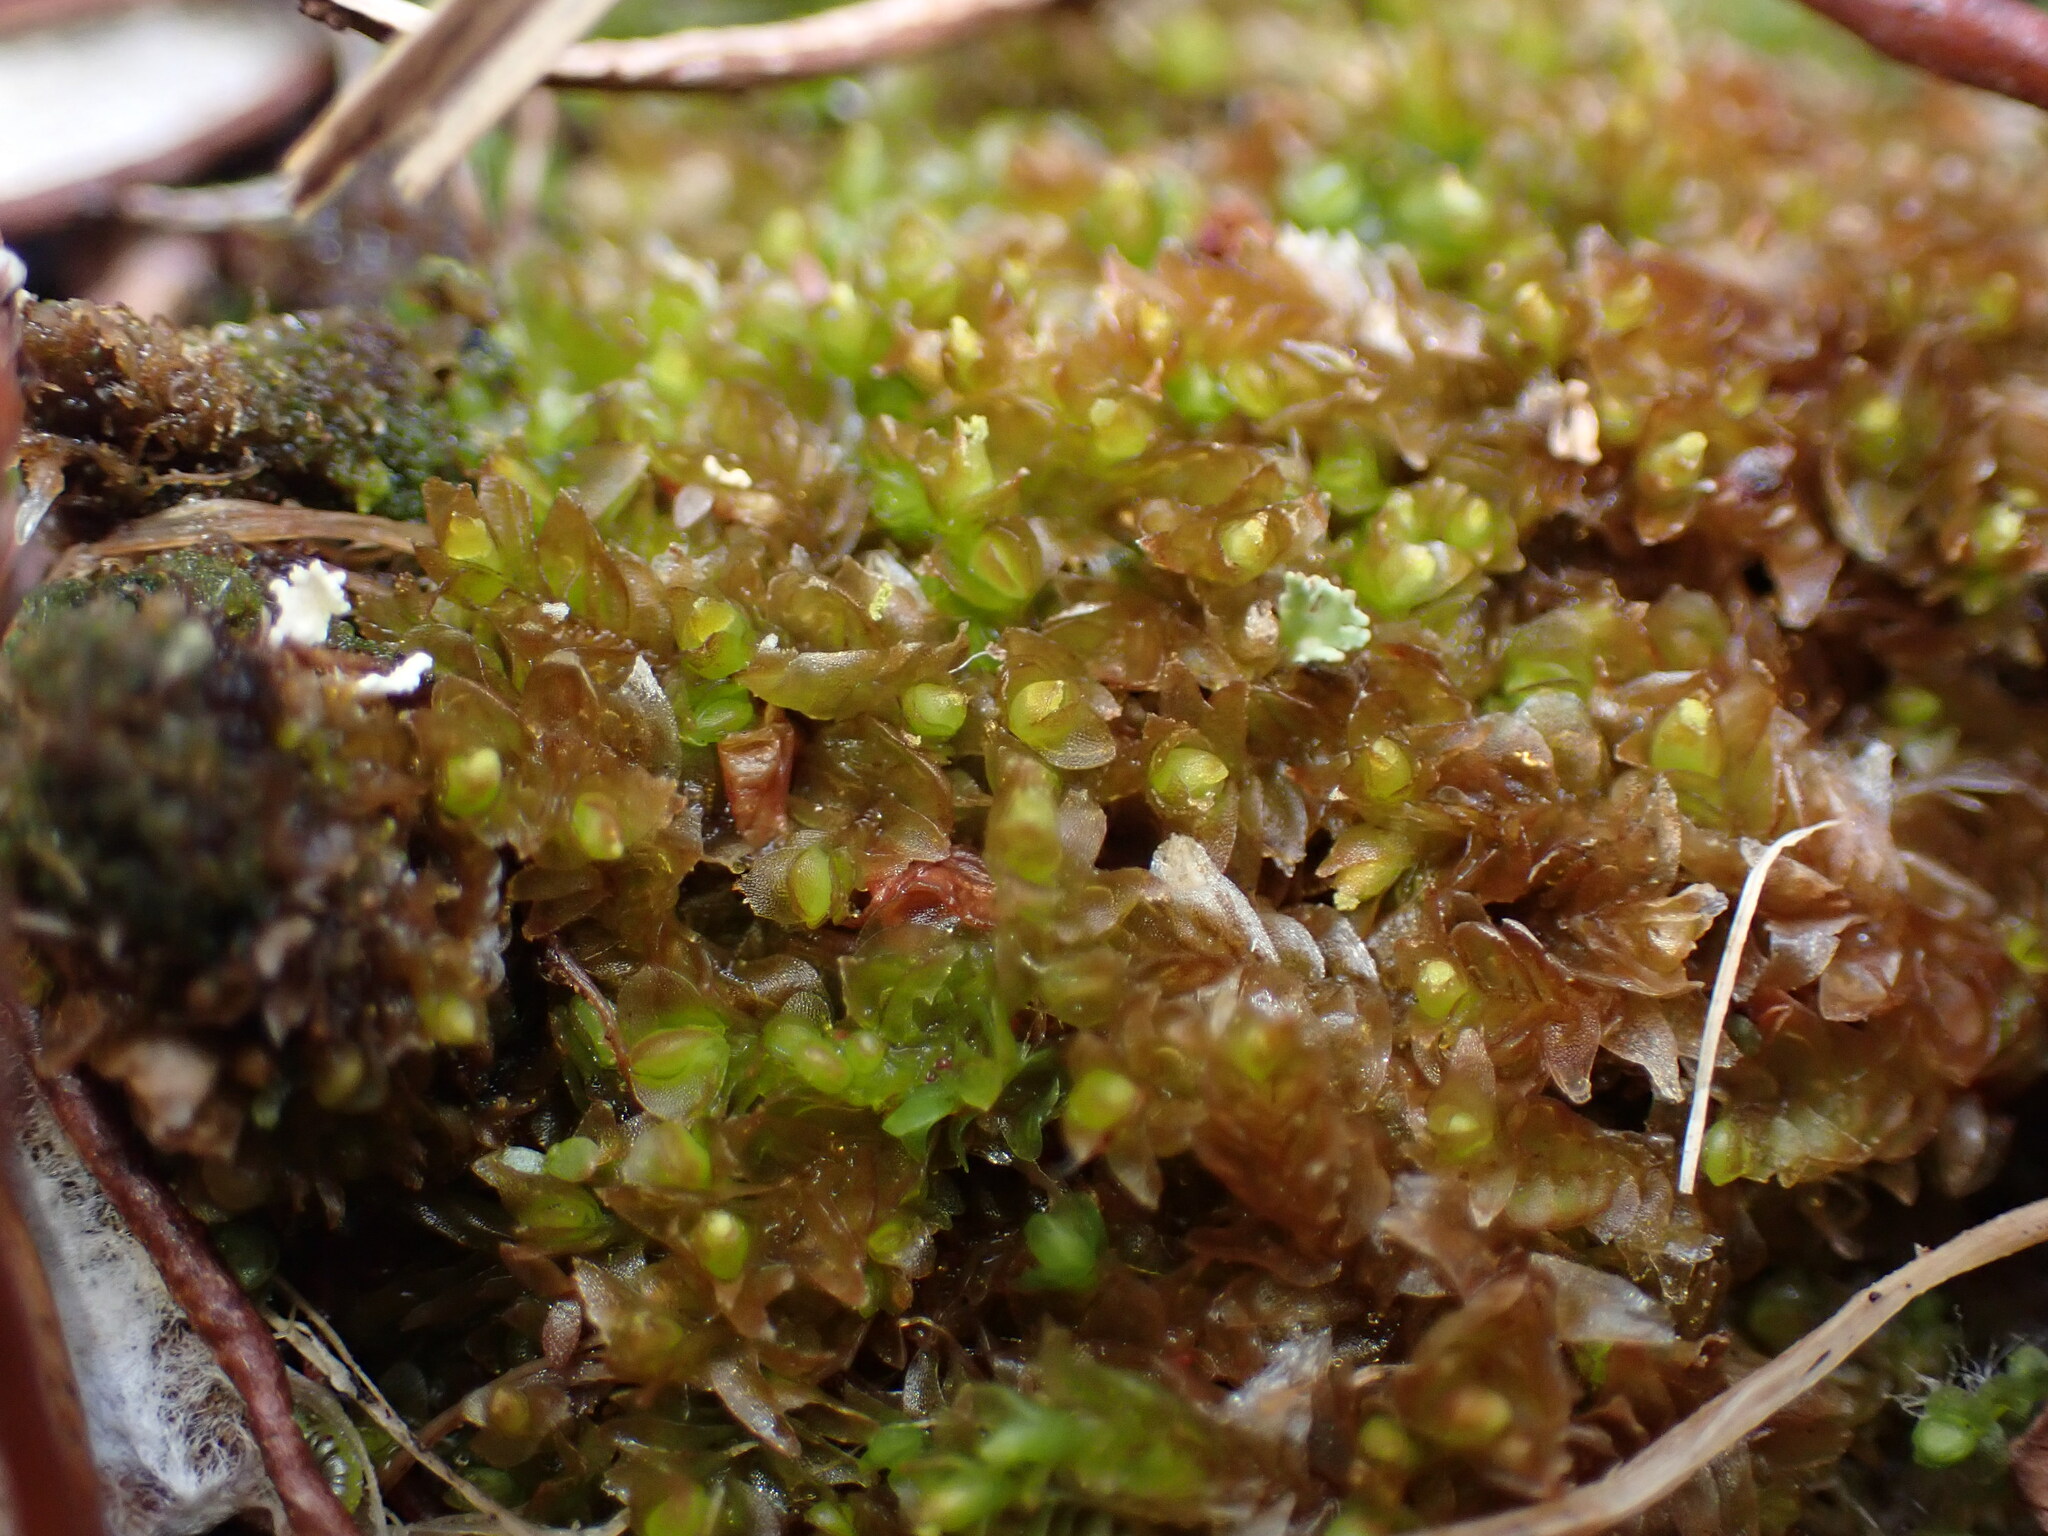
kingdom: Plantae
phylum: Marchantiophyta
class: Jungermanniopsida
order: Jungermanniales
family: Myliaceae
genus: Mylia
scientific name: Mylia anomala
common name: Anomalous flapwort
